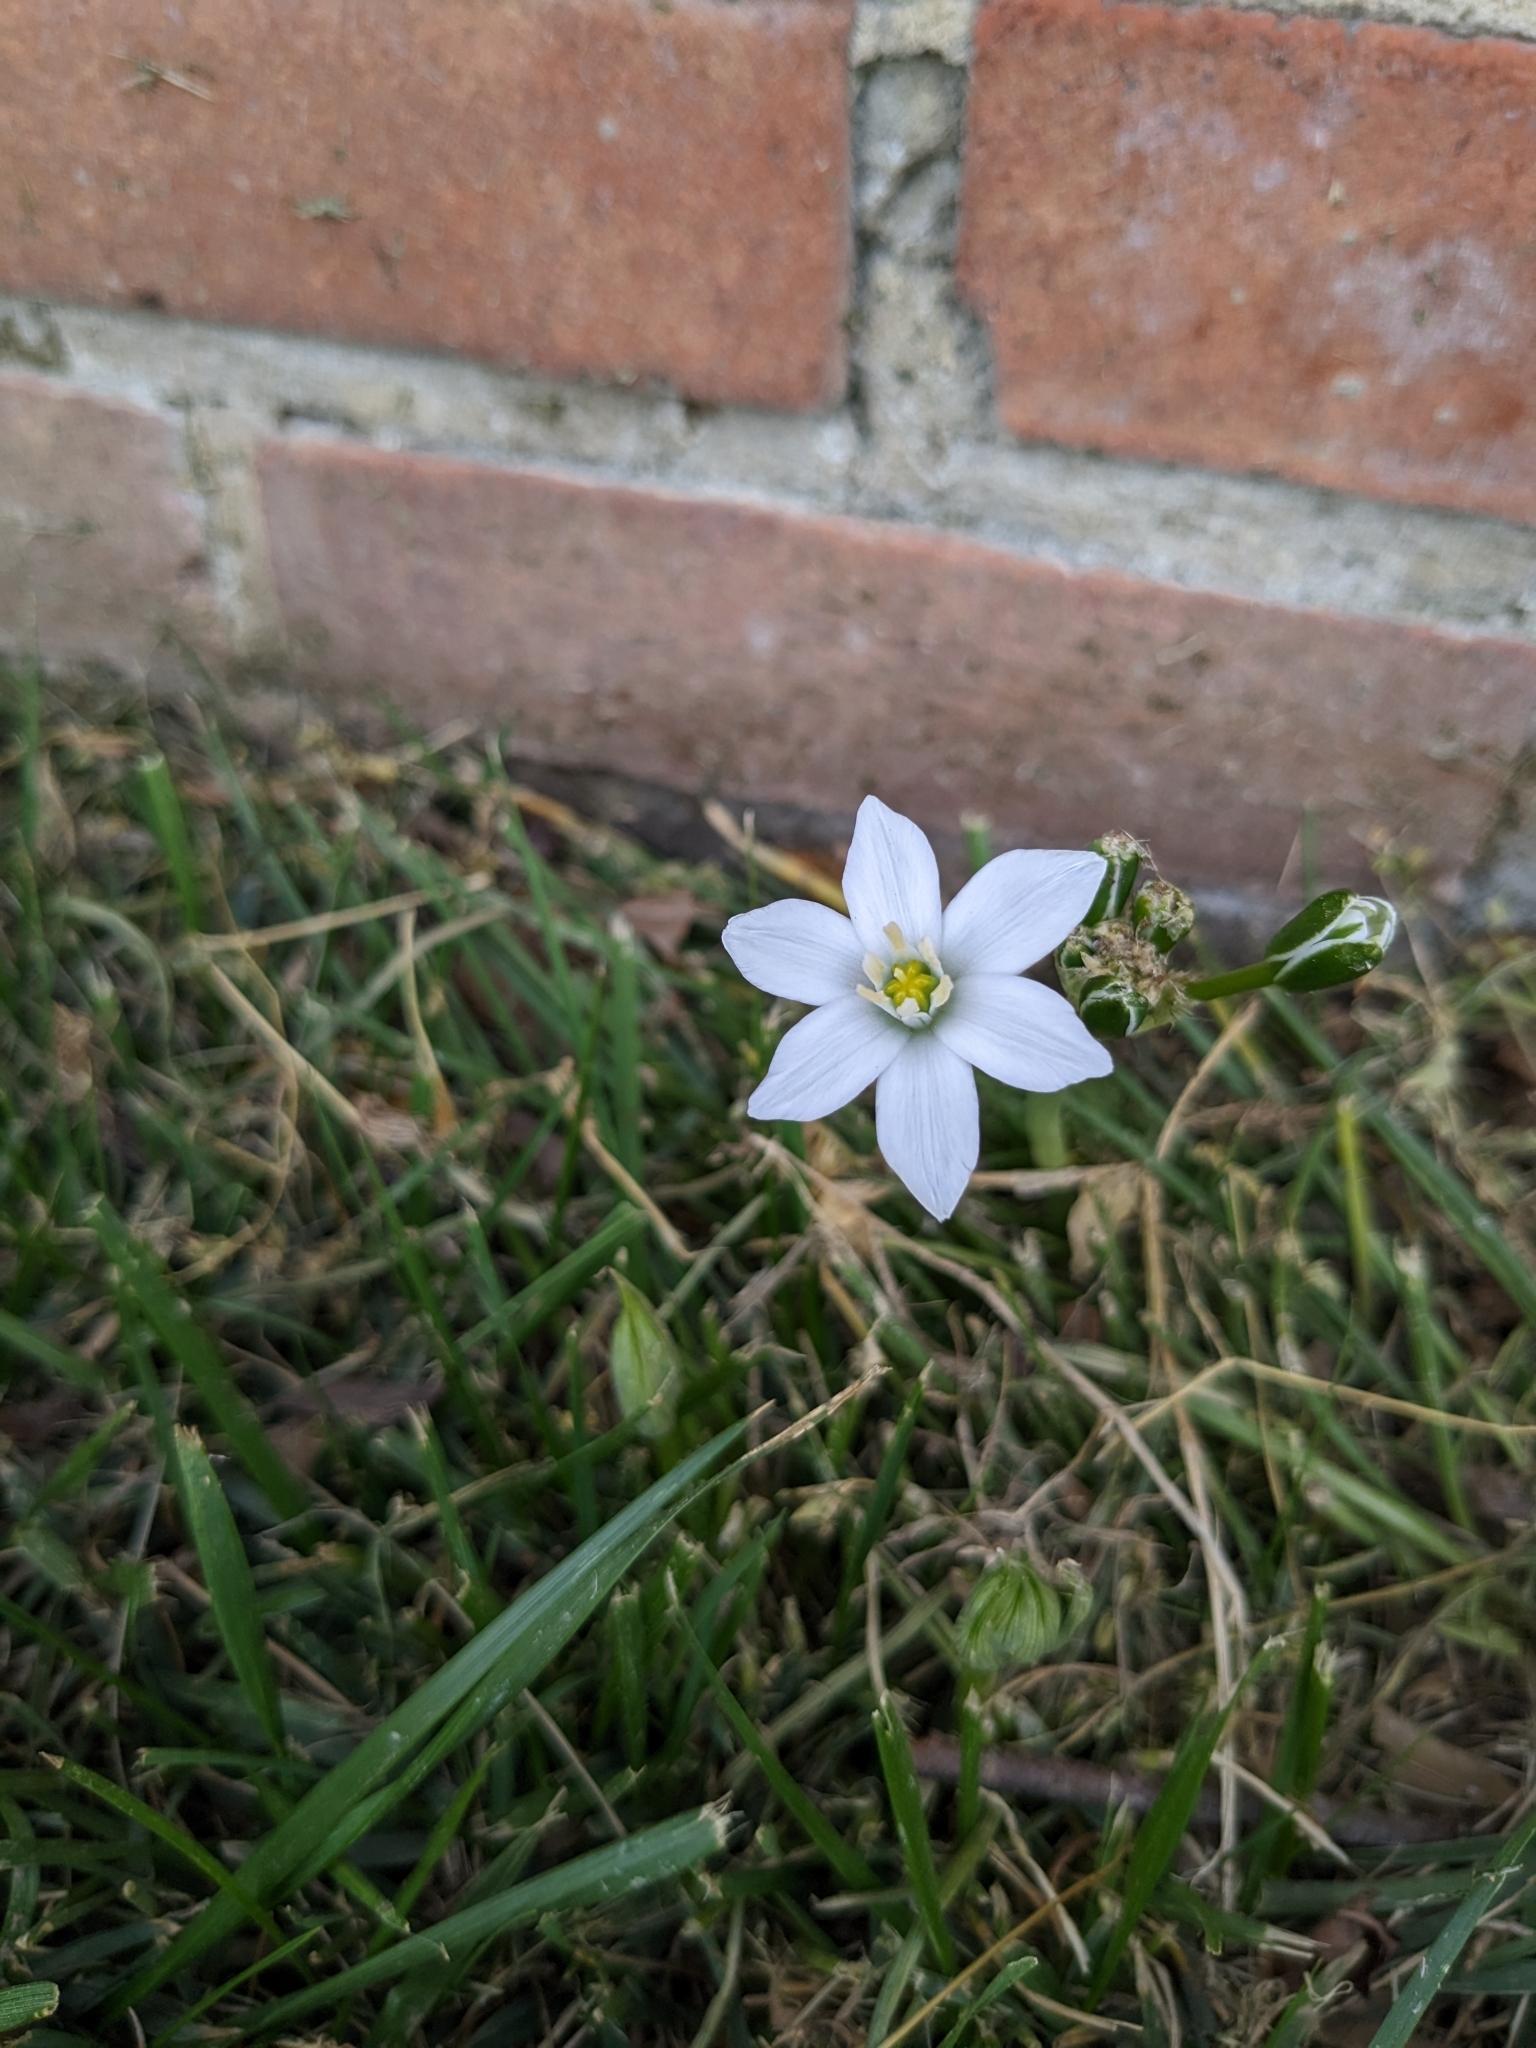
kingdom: Plantae
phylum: Tracheophyta
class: Liliopsida
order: Asparagales
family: Asparagaceae
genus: Ornithogalum
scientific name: Ornithogalum umbellatum
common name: Garden star-of-bethlehem
